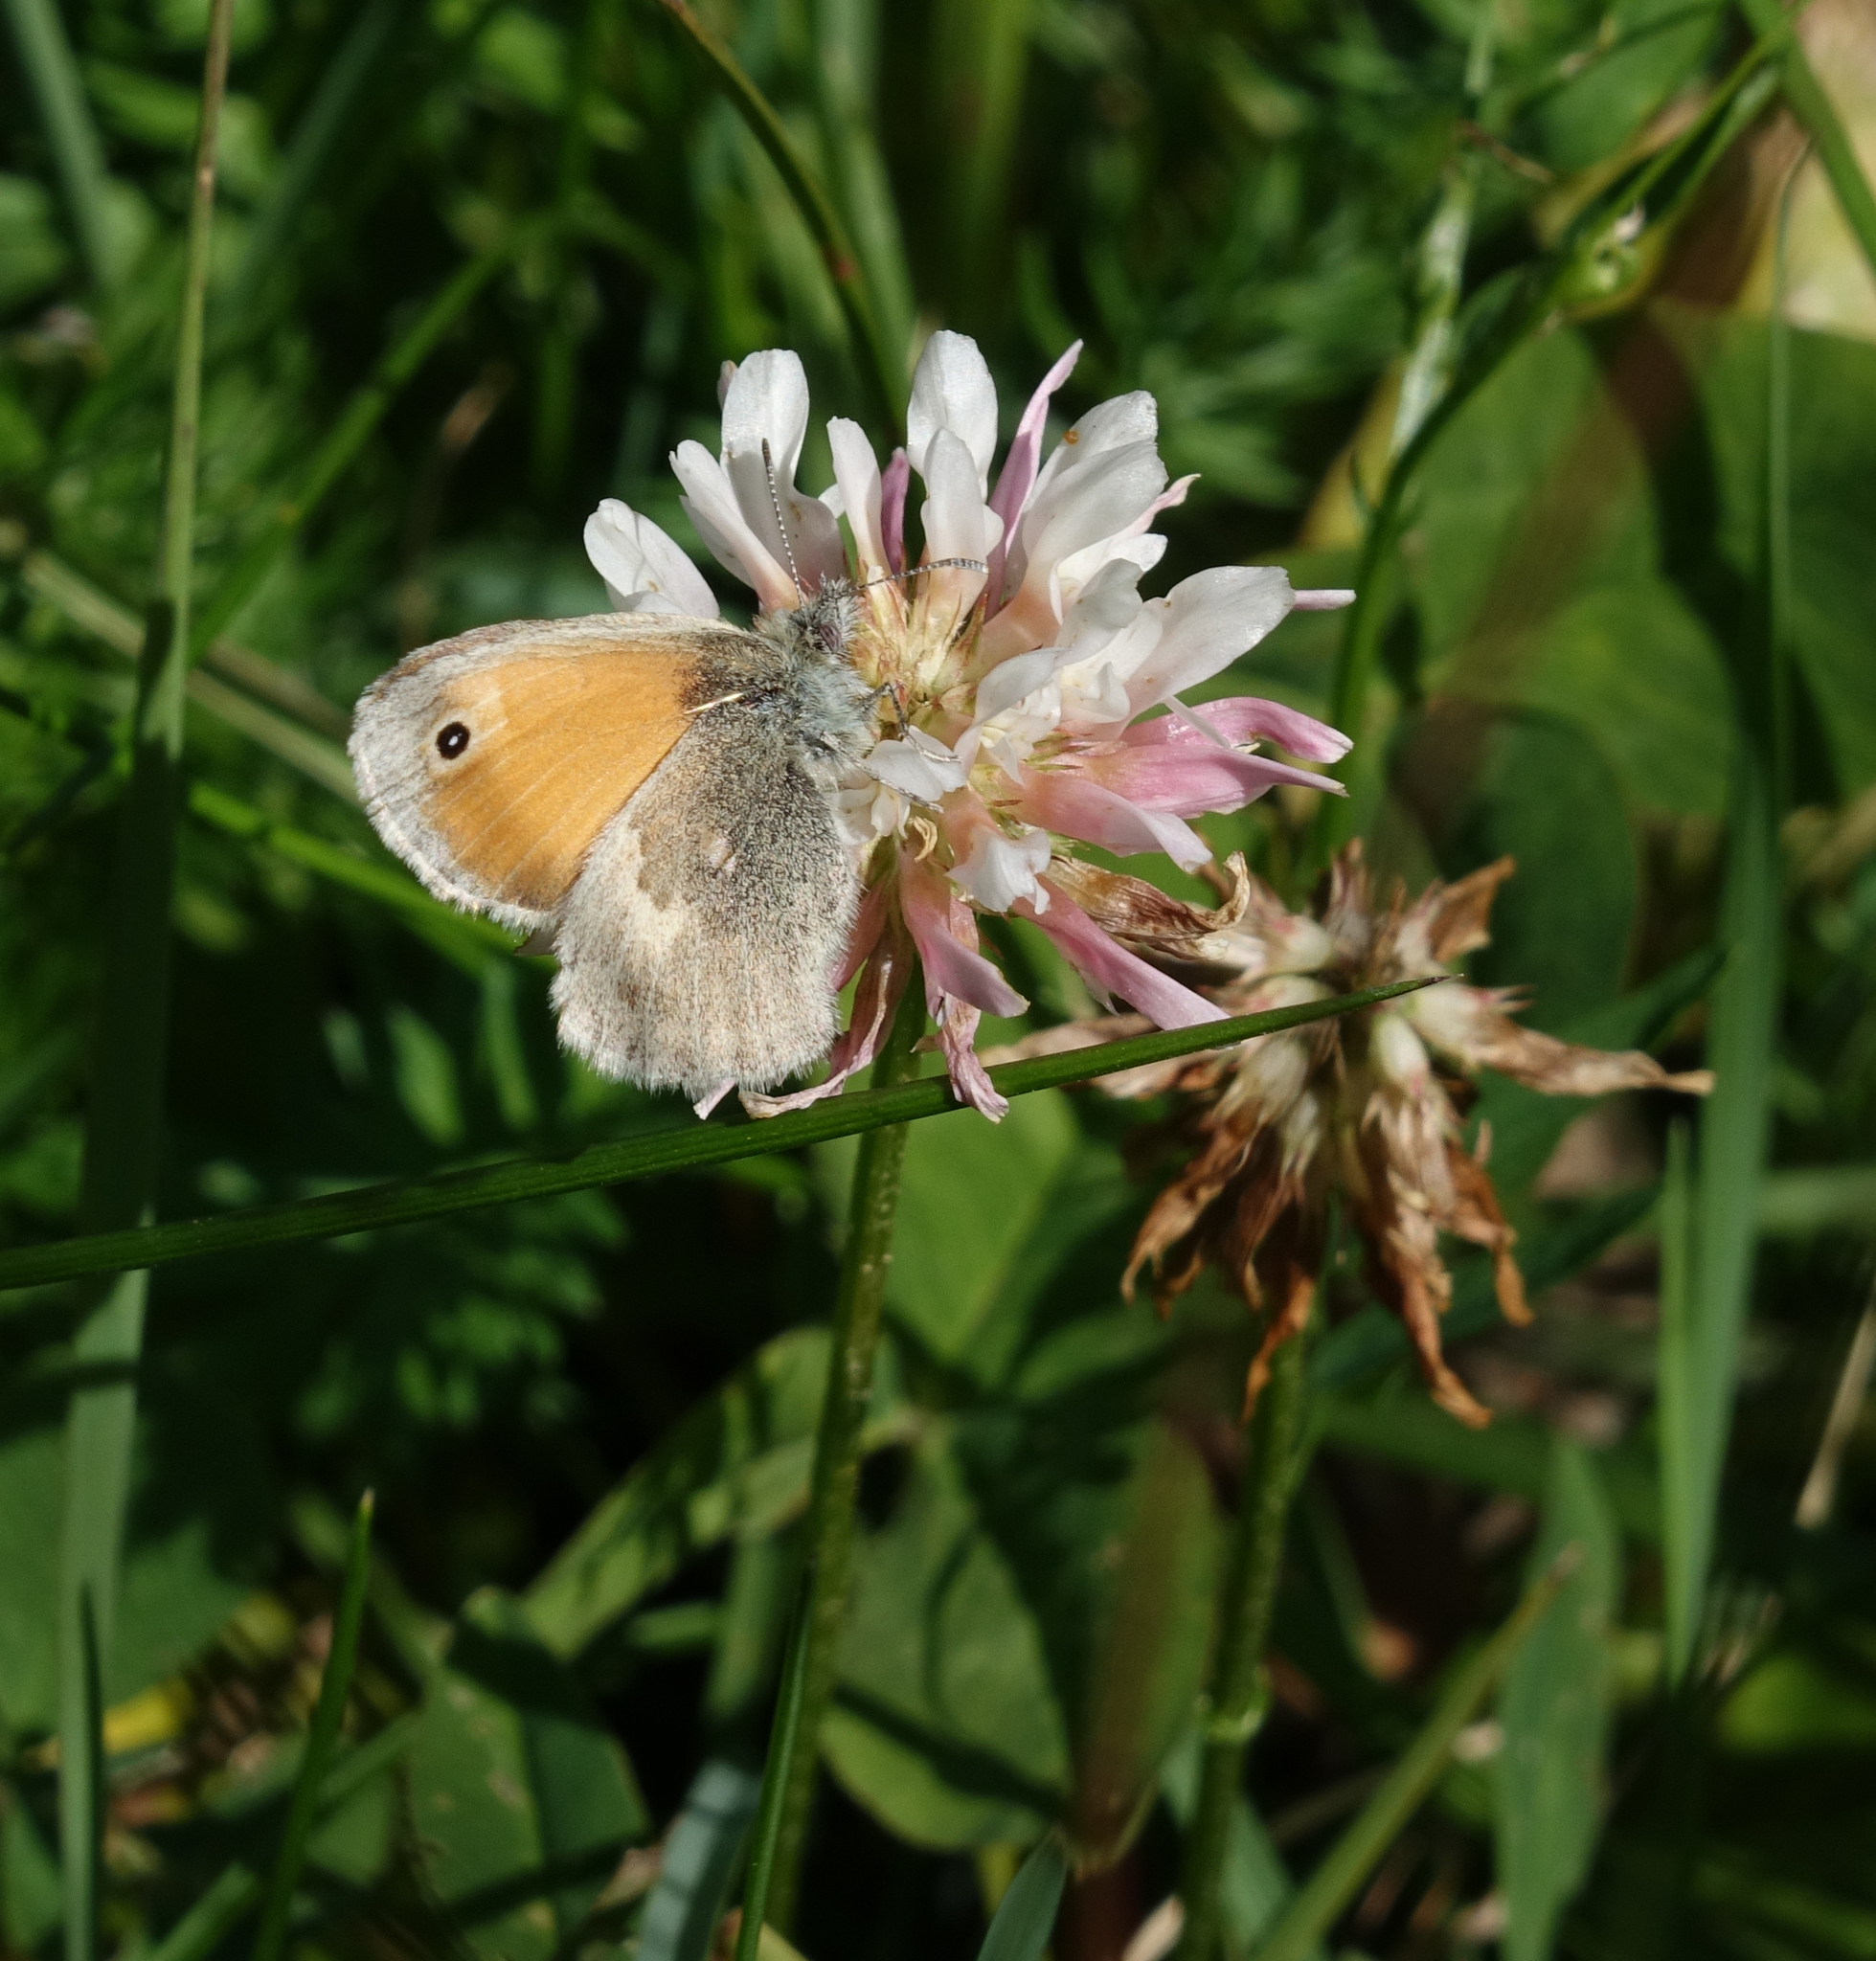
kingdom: Animalia
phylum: Arthropoda
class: Insecta
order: Lepidoptera
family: Nymphalidae
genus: Coenonympha
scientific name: Coenonympha pamphilus
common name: Small heath
